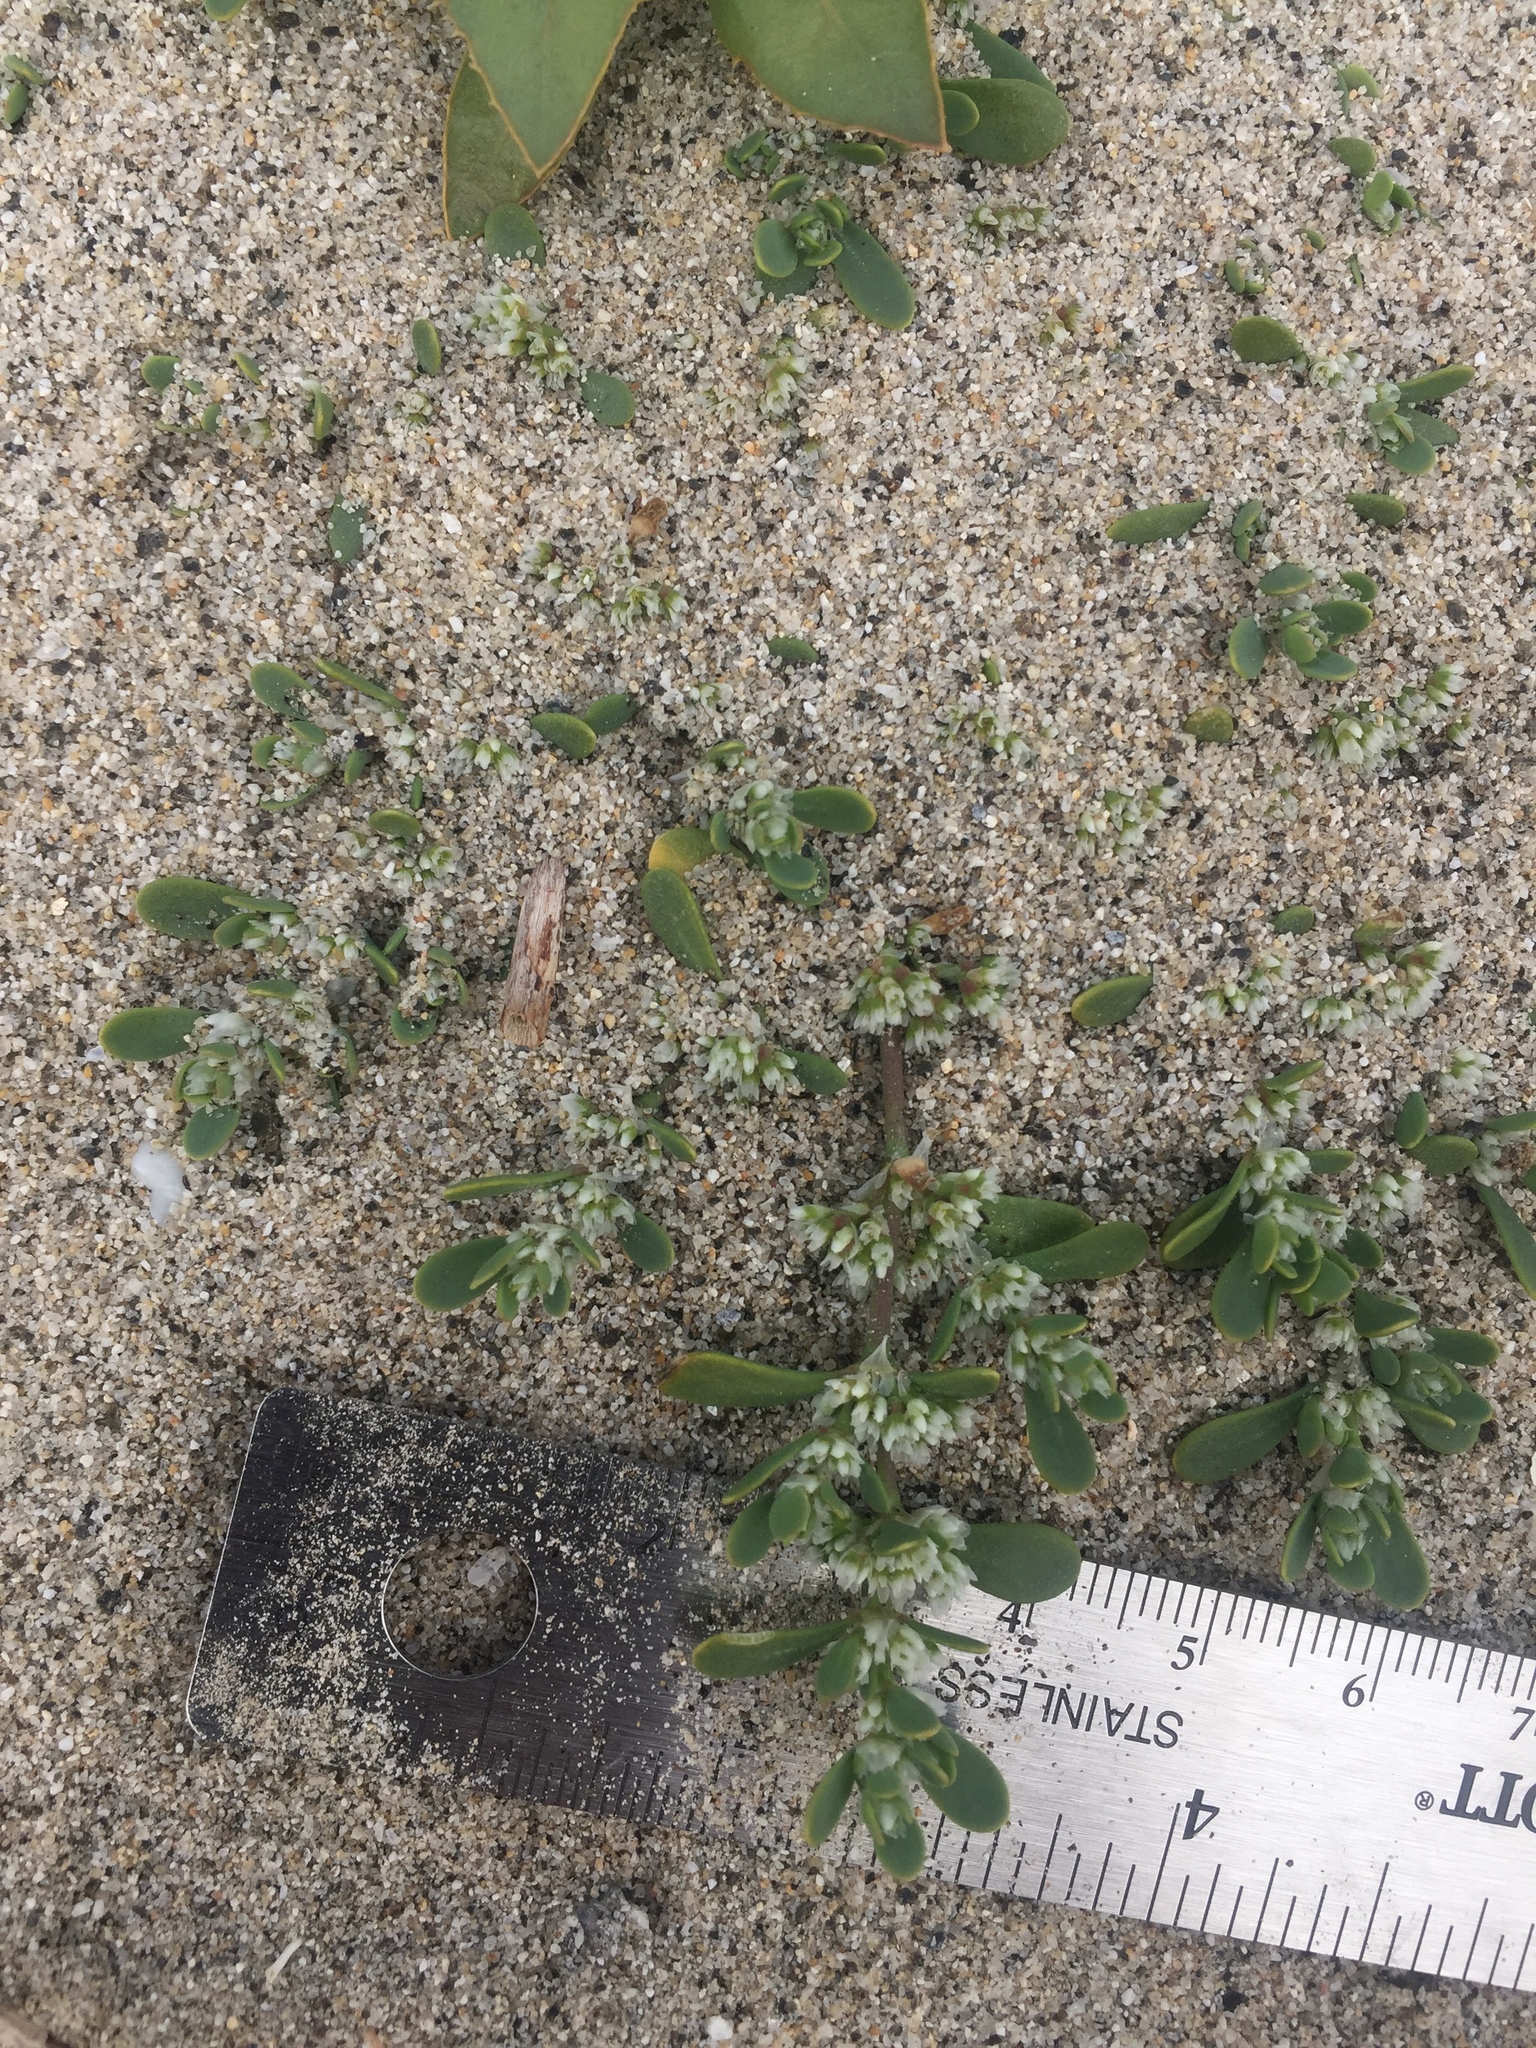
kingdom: Plantae
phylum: Tracheophyta
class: Magnoliopsida
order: Caryophyllales
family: Caryophyllaceae
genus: Achyronychia
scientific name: Achyronychia cooperi
